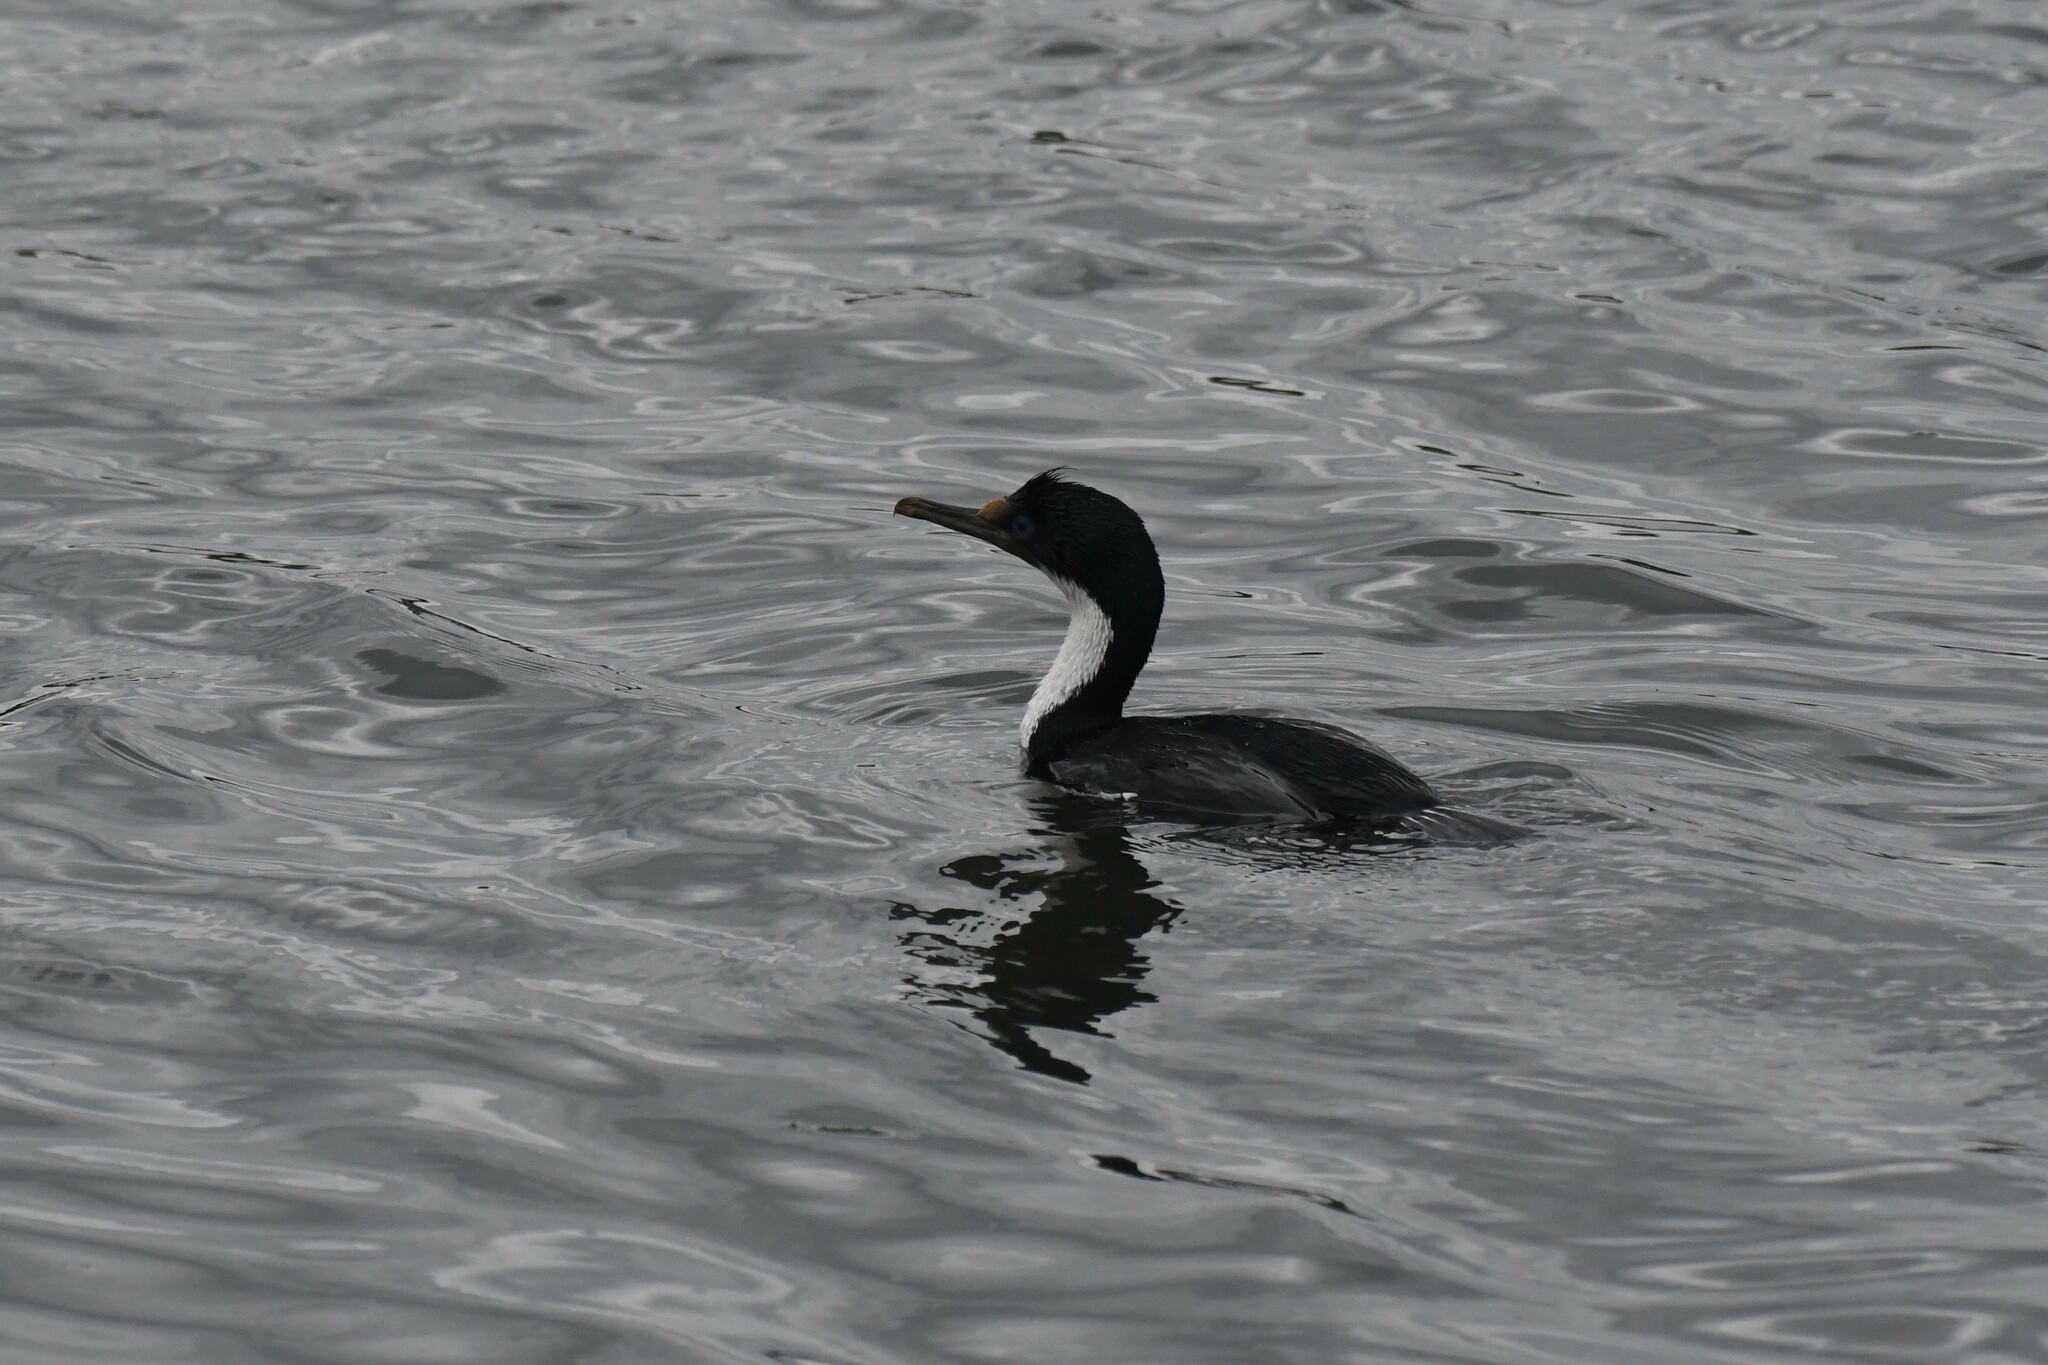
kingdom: Animalia
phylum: Chordata
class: Aves
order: Suliformes
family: Phalacrocoracidae
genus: Leucocarbo
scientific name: Leucocarbo atriceps
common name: Imperial shag
